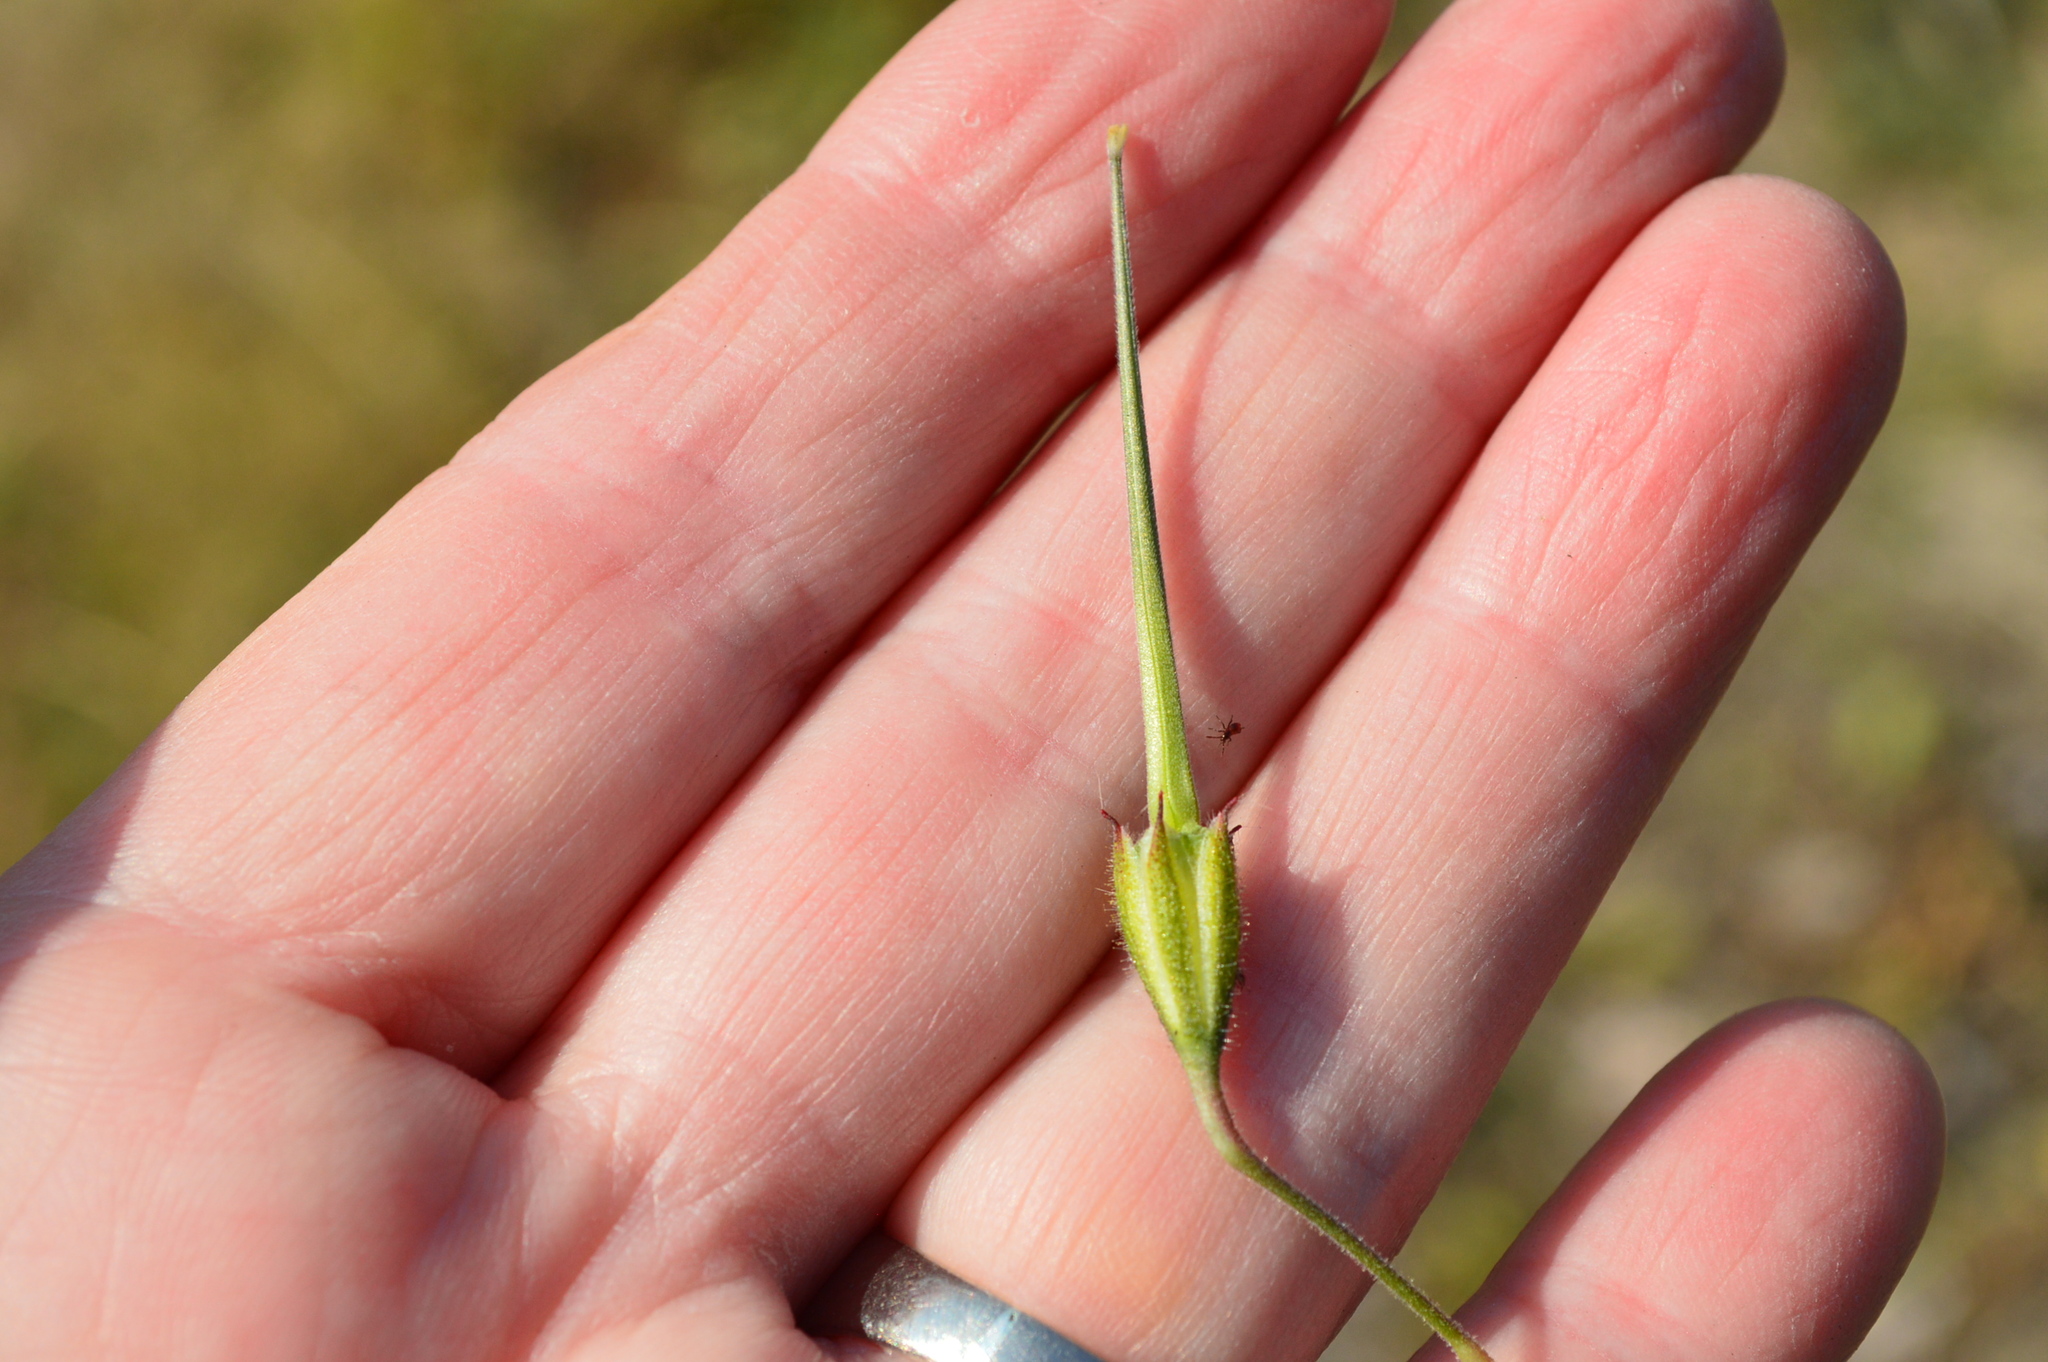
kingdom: Plantae
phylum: Tracheophyta
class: Magnoliopsida
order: Geraniales
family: Geraniaceae
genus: Monsonia
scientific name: Monsonia angustifolia
